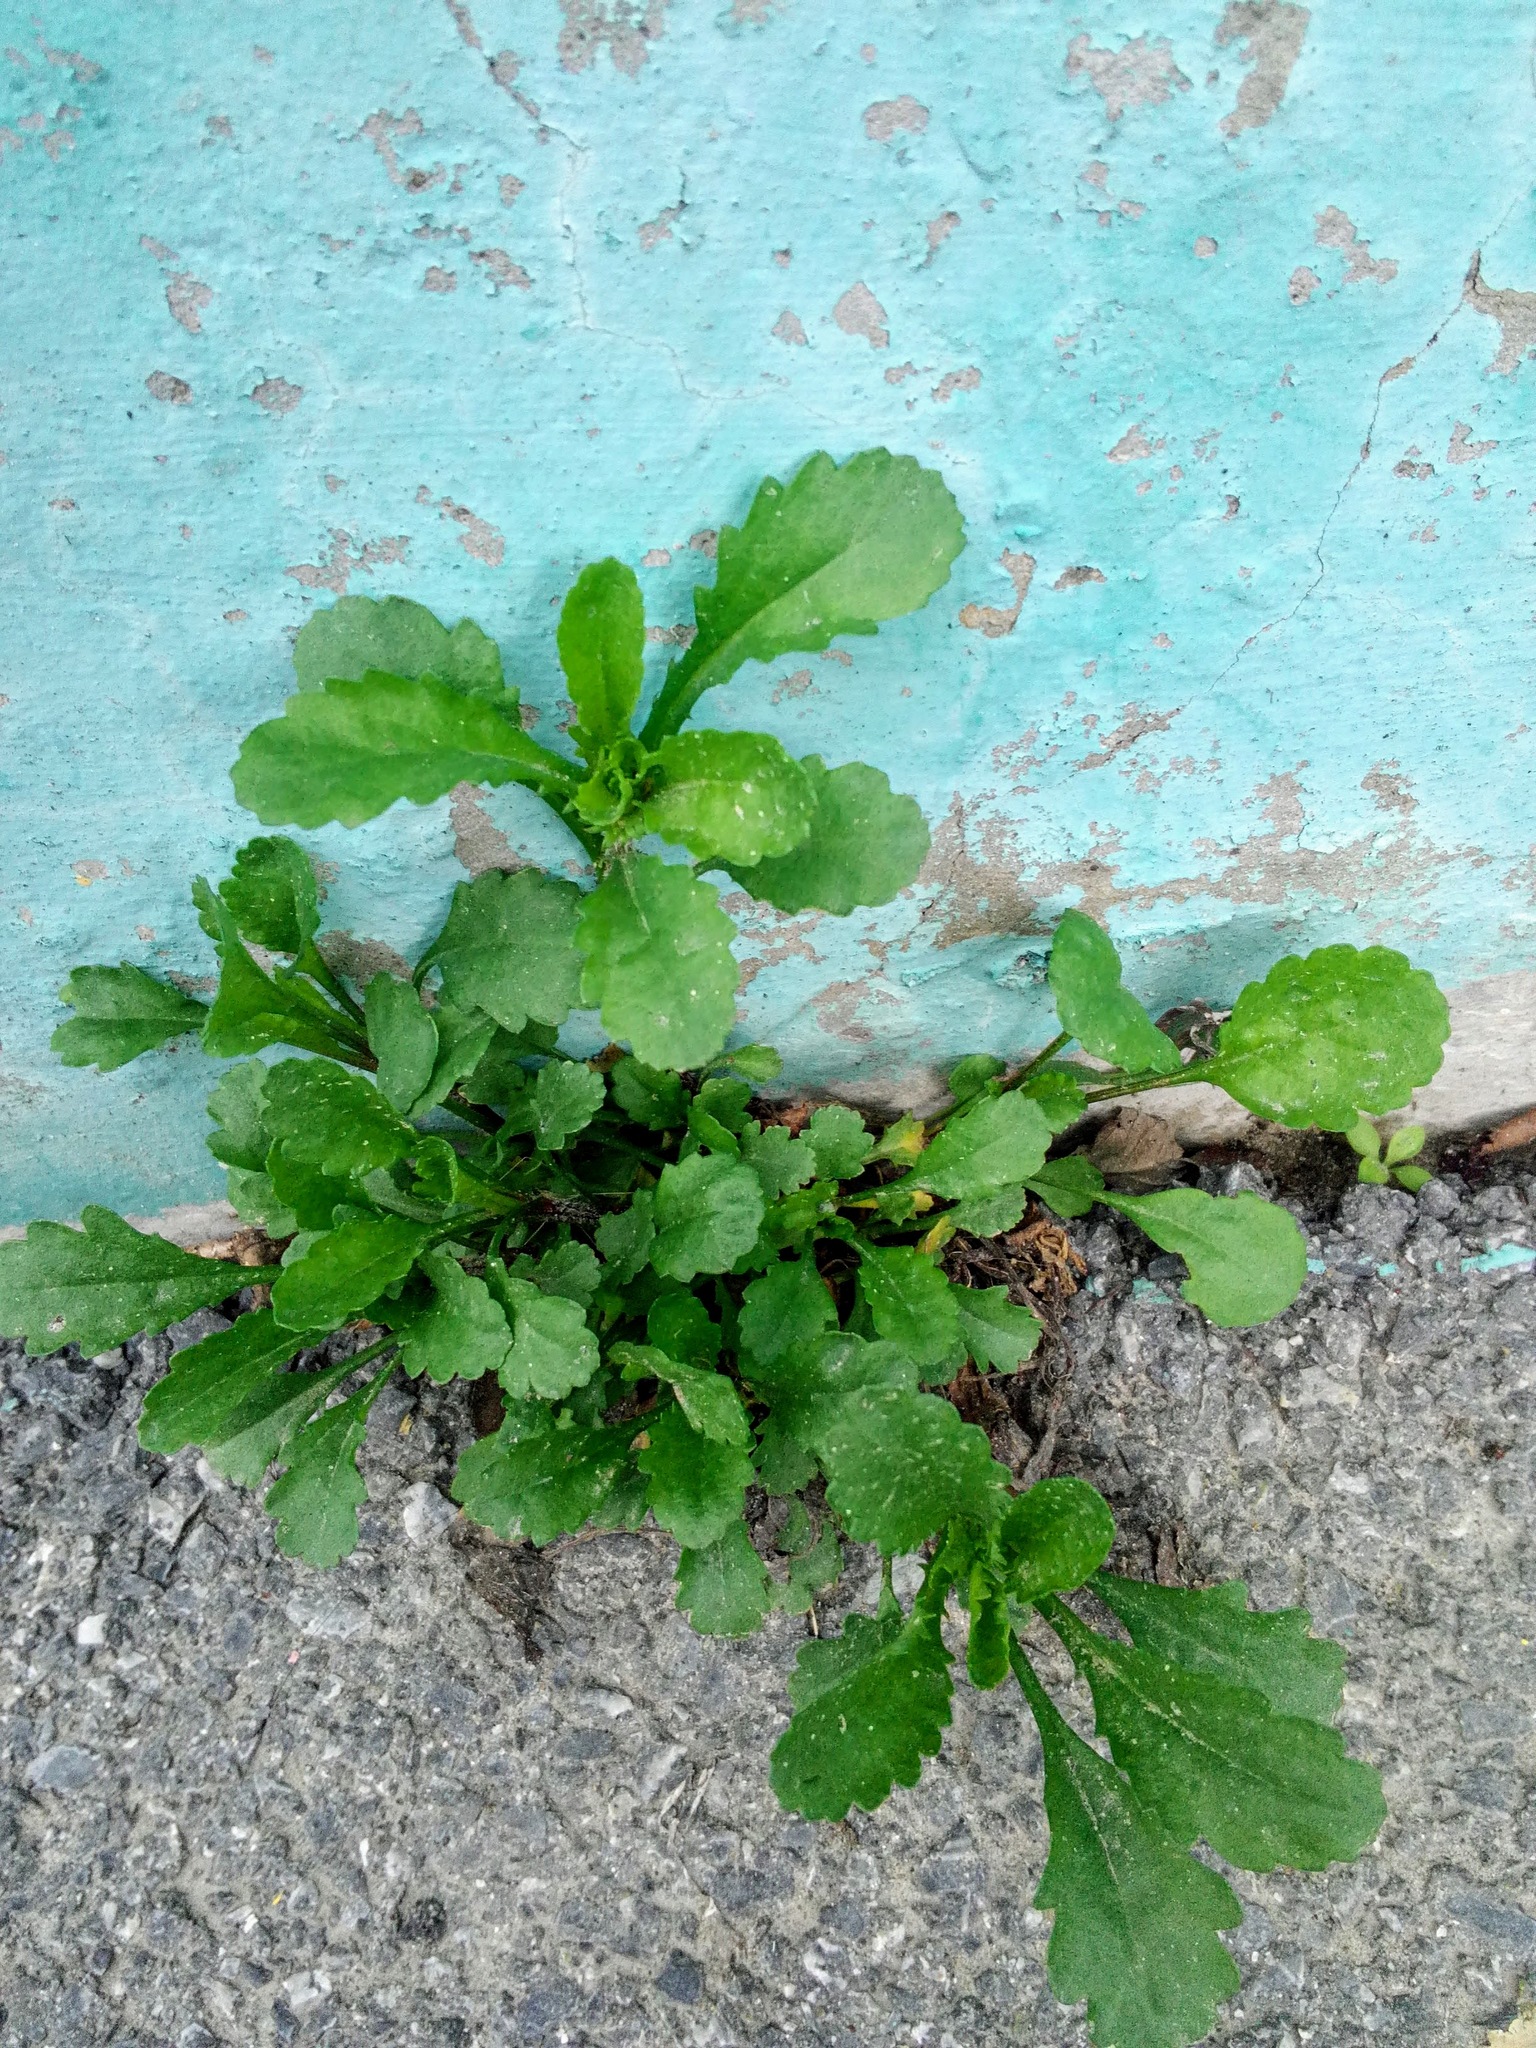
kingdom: Plantae
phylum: Tracheophyta
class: Magnoliopsida
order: Asterales
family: Asteraceae
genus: Leucanthemum
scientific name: Leucanthemum ircutianum
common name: Daisy
